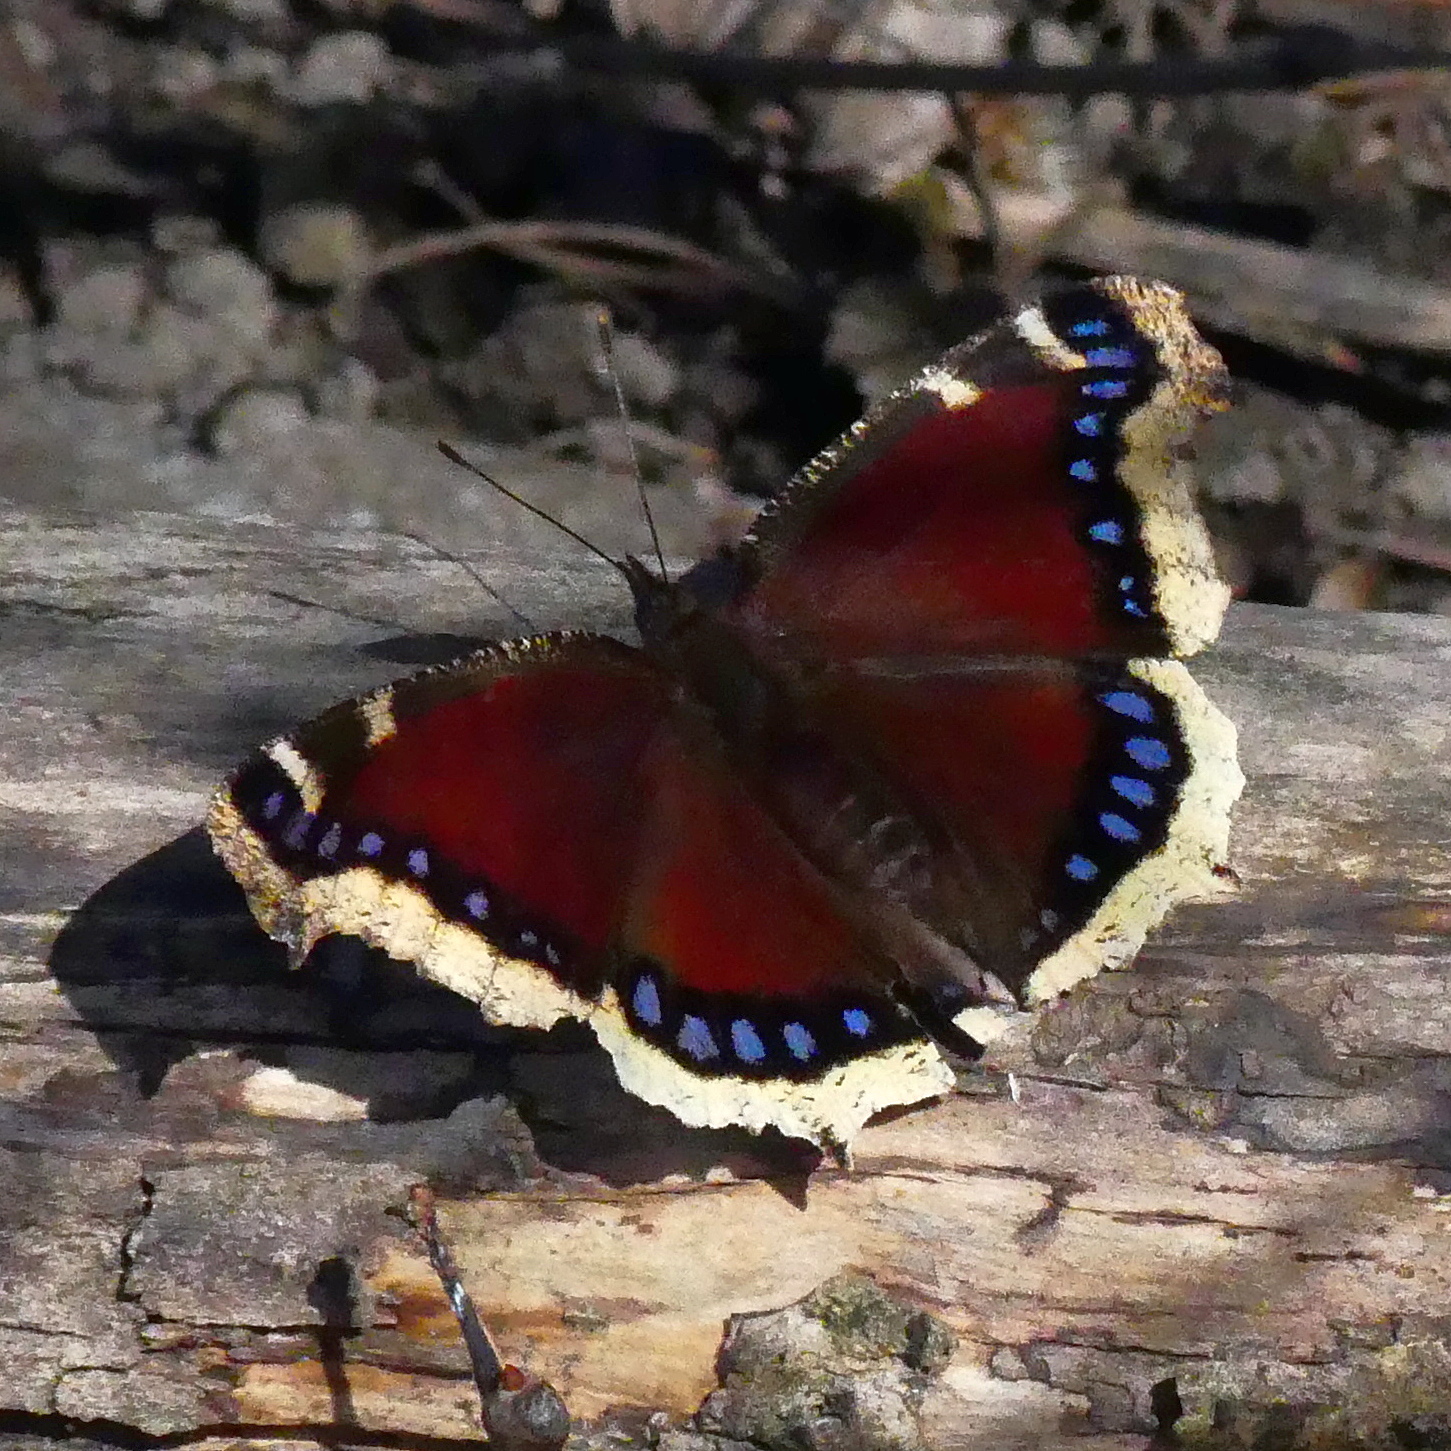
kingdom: Animalia
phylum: Arthropoda
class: Insecta
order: Lepidoptera
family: Nymphalidae
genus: Nymphalis
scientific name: Nymphalis antiopa
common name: Camberwell beauty
